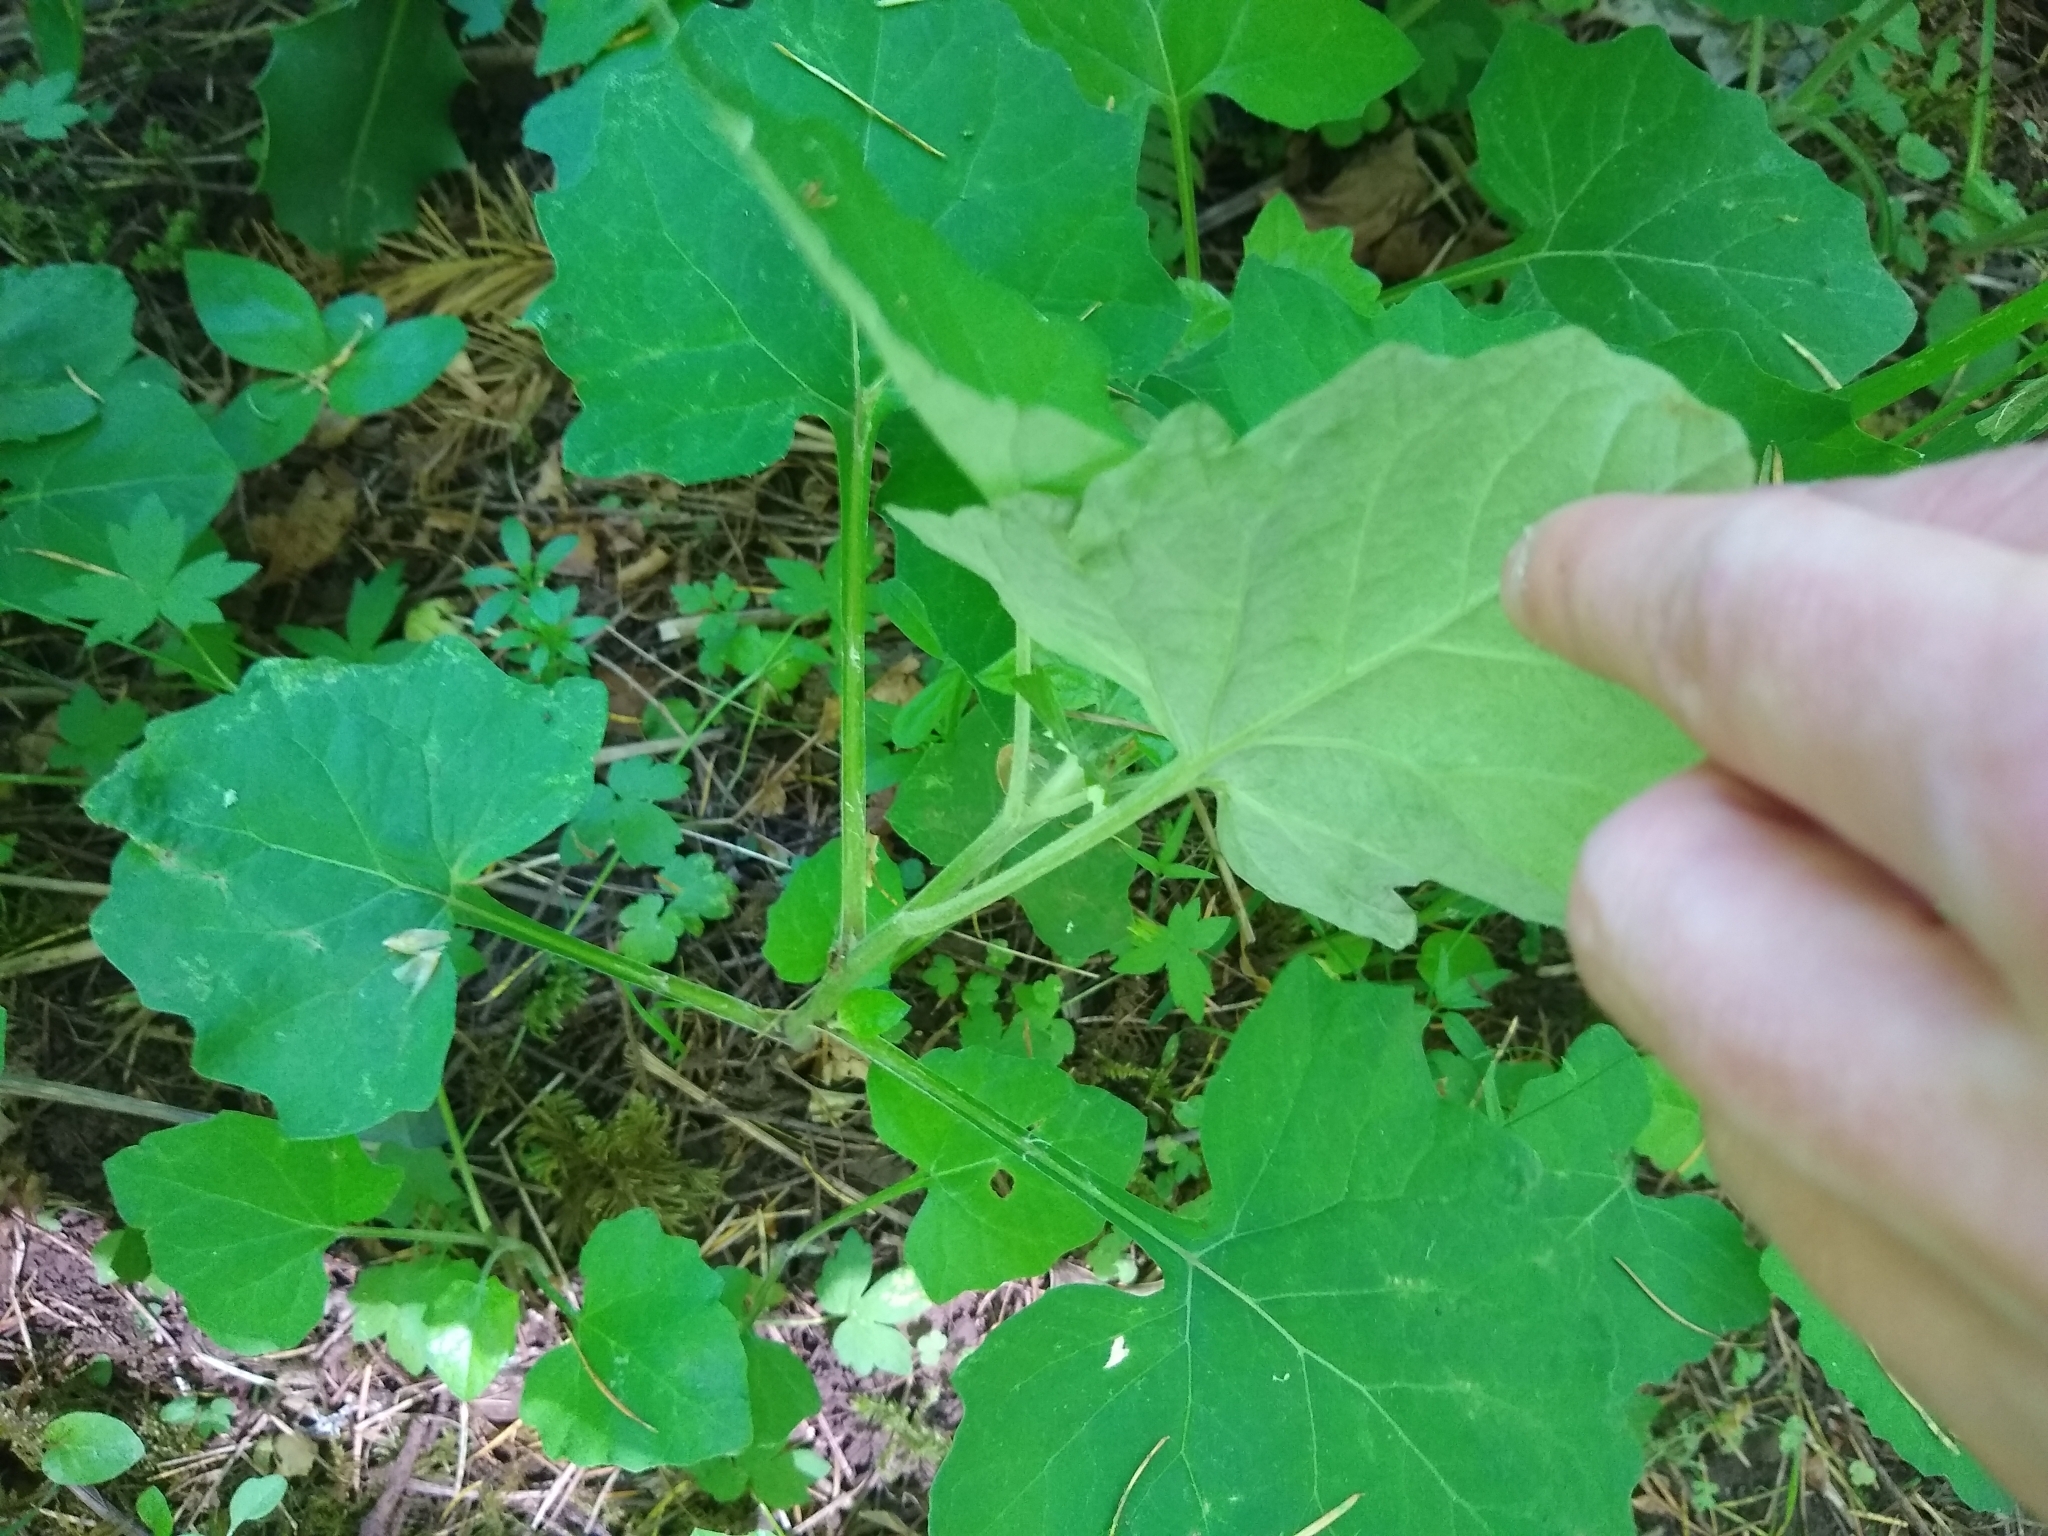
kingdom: Plantae
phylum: Tracheophyta
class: Magnoliopsida
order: Asterales
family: Asteraceae
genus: Adenocaulon
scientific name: Adenocaulon bicolor
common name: Trailplant
